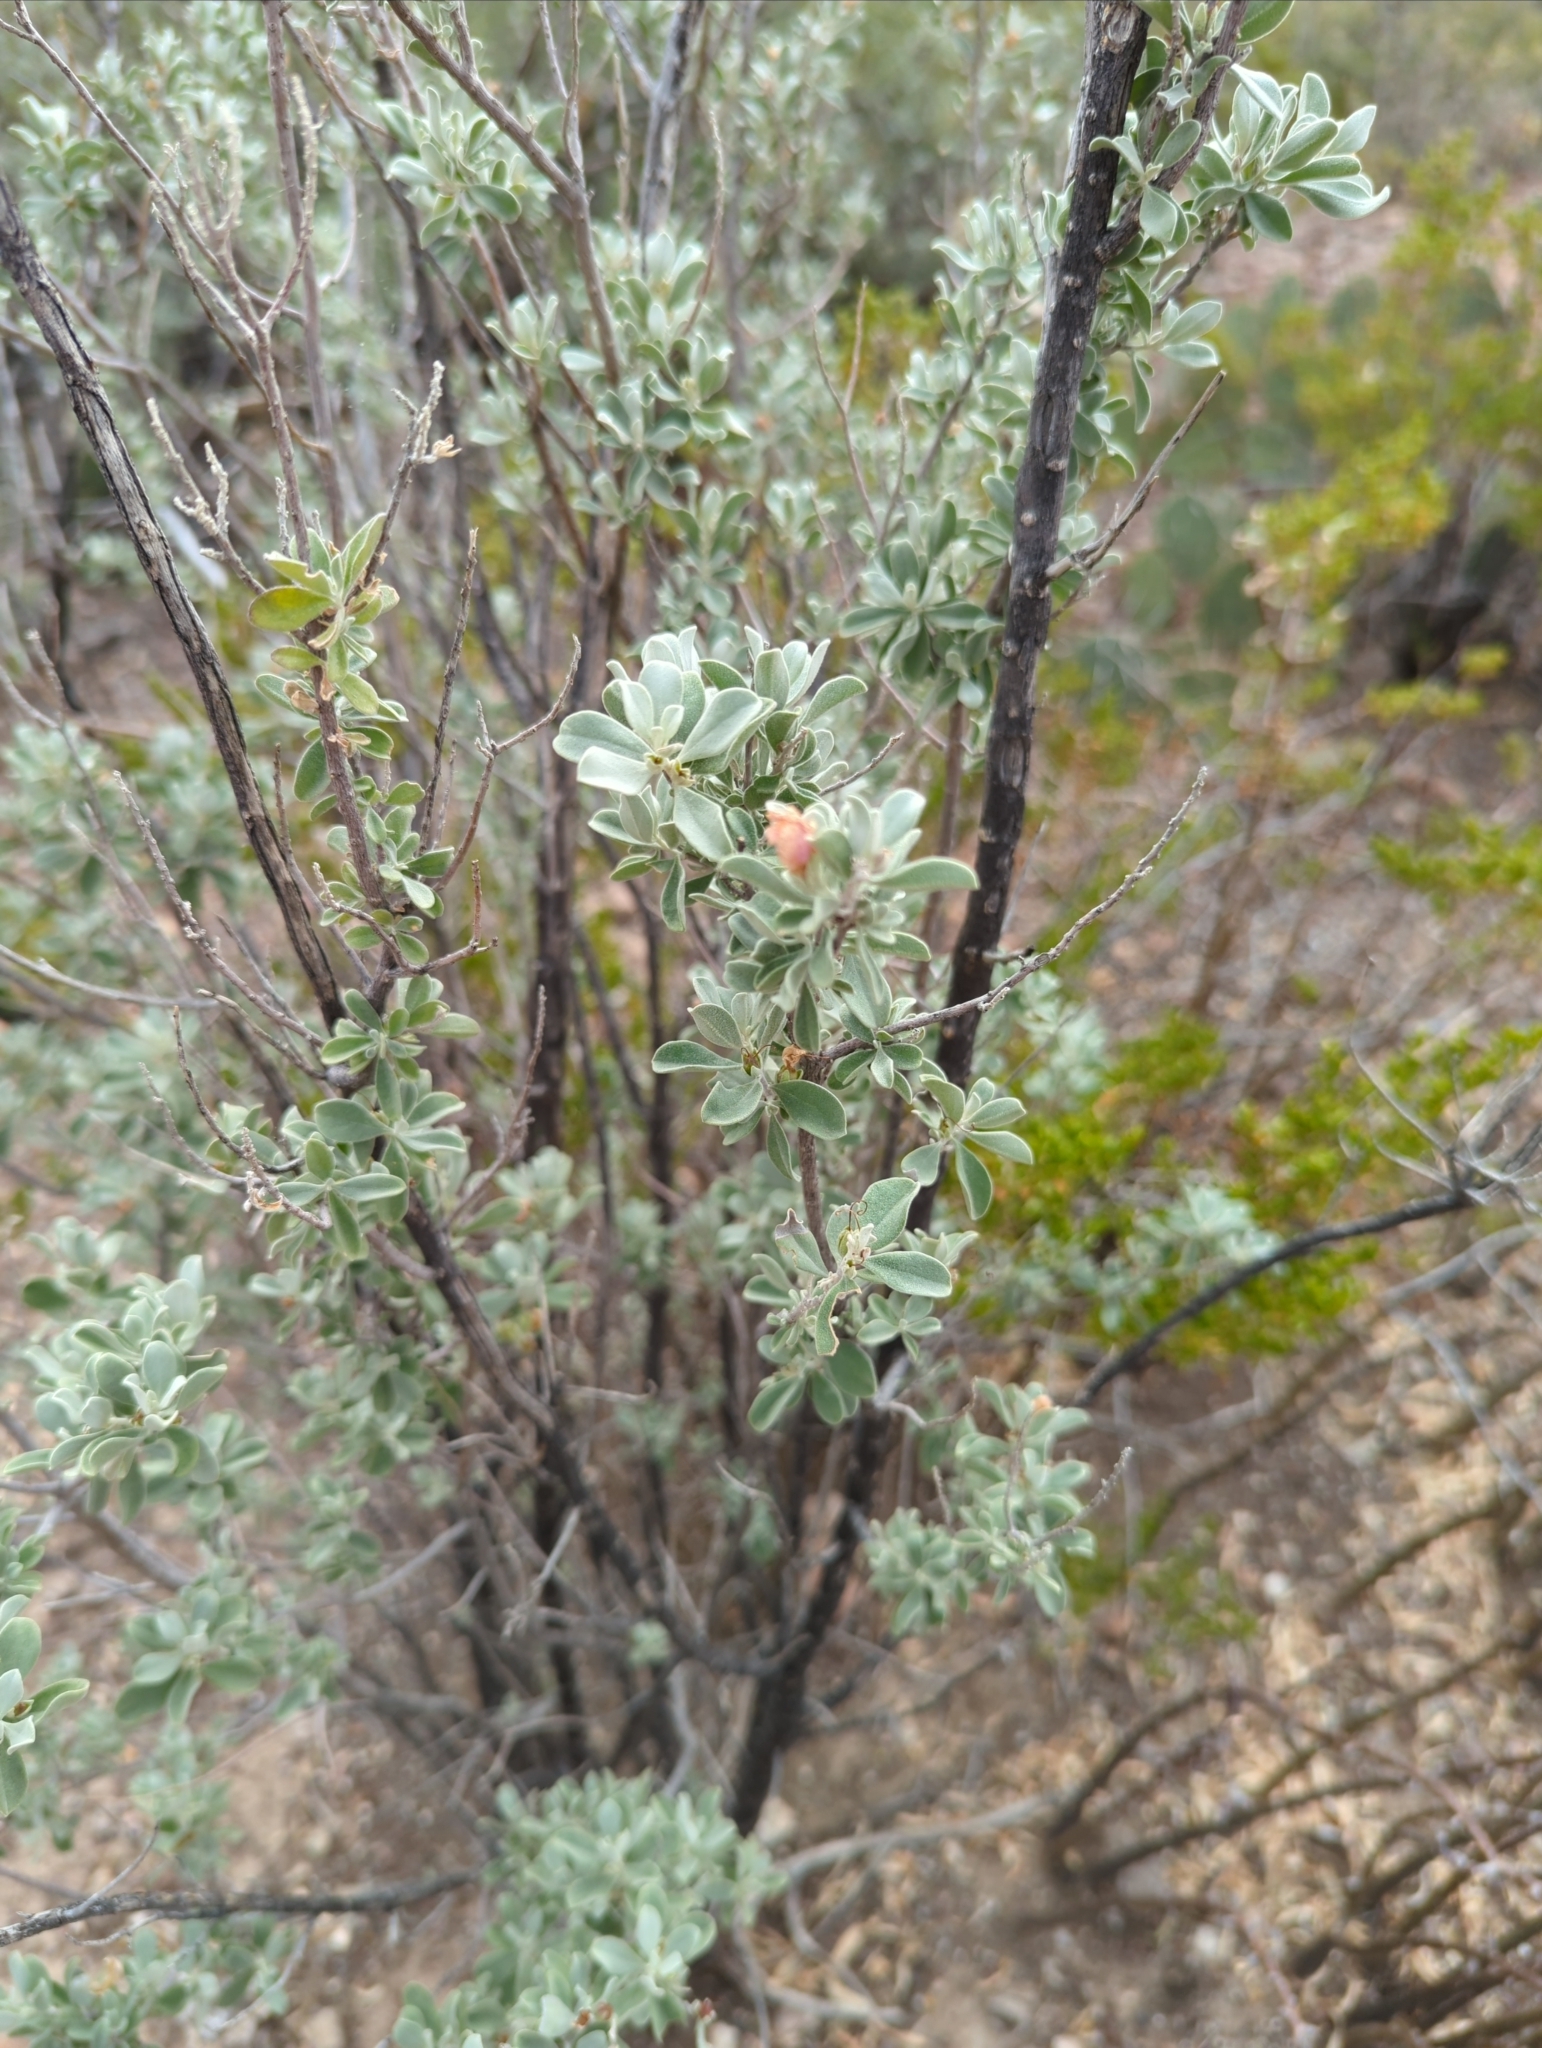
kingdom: Plantae
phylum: Tracheophyta
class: Magnoliopsida
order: Lamiales
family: Scrophulariaceae
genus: Leucophyllum
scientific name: Leucophyllum frutescens
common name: Texas silverleaf
